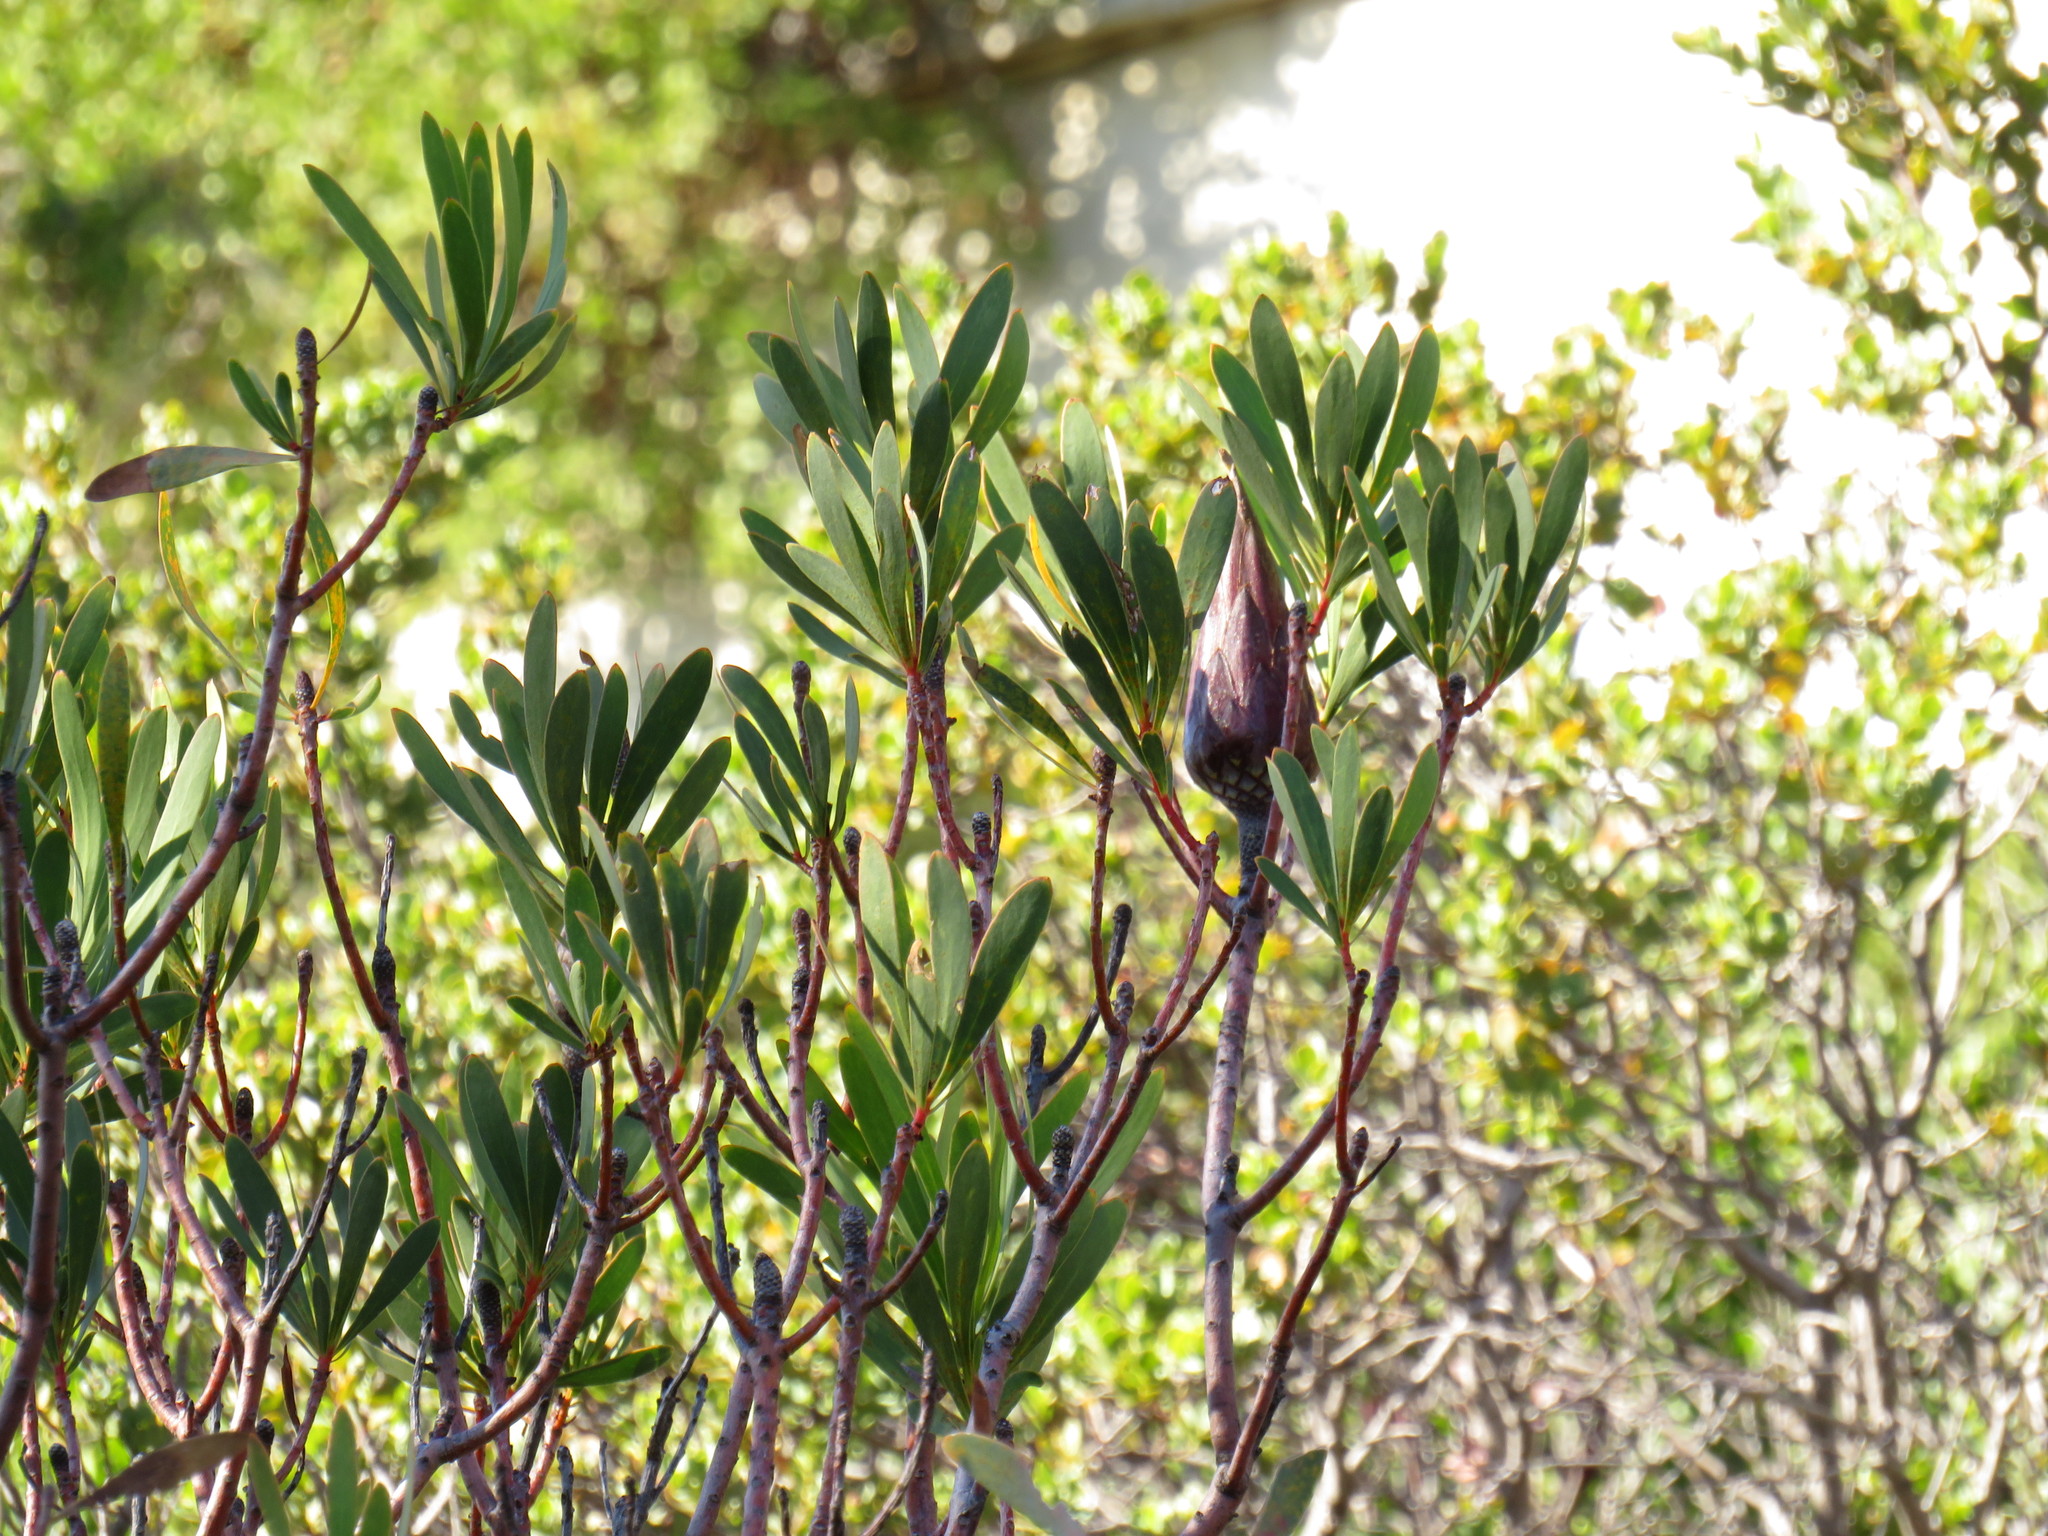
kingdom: Plantae
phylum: Tracheophyta
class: Magnoliopsida
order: Proteales
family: Proteaceae
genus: Protea
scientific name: Protea repens
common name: Sugarbush
